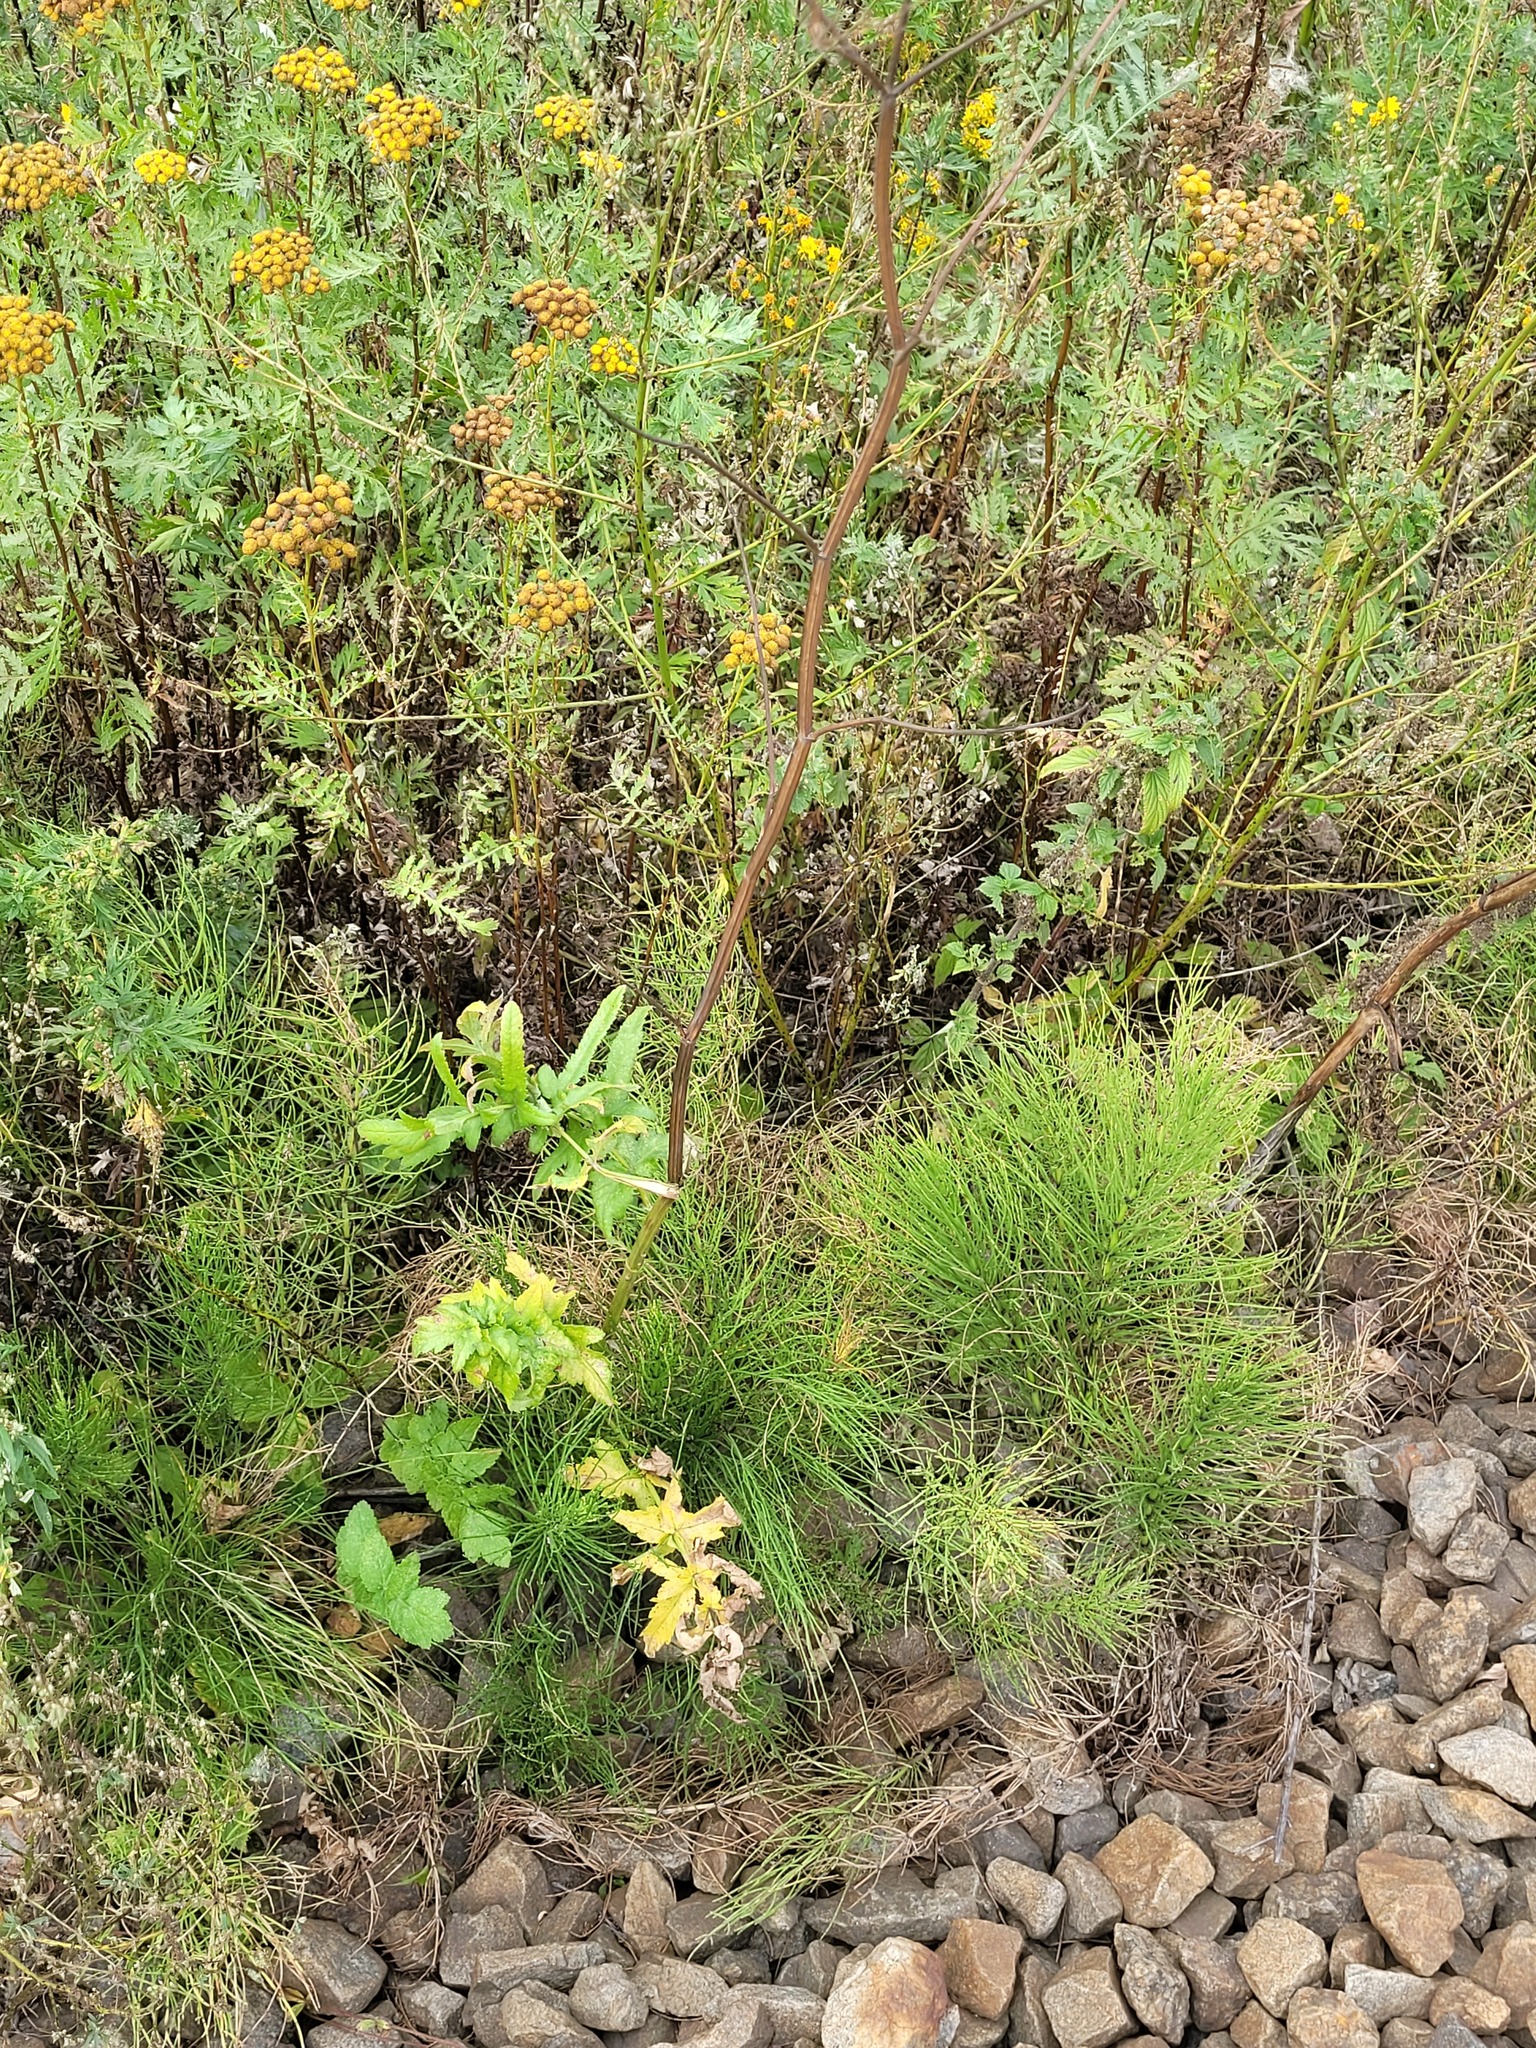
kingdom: Plantae
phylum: Tracheophyta
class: Magnoliopsida
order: Apiales
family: Apiaceae
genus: Pastinaca
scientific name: Pastinaca sativa
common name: Wild parsnip
